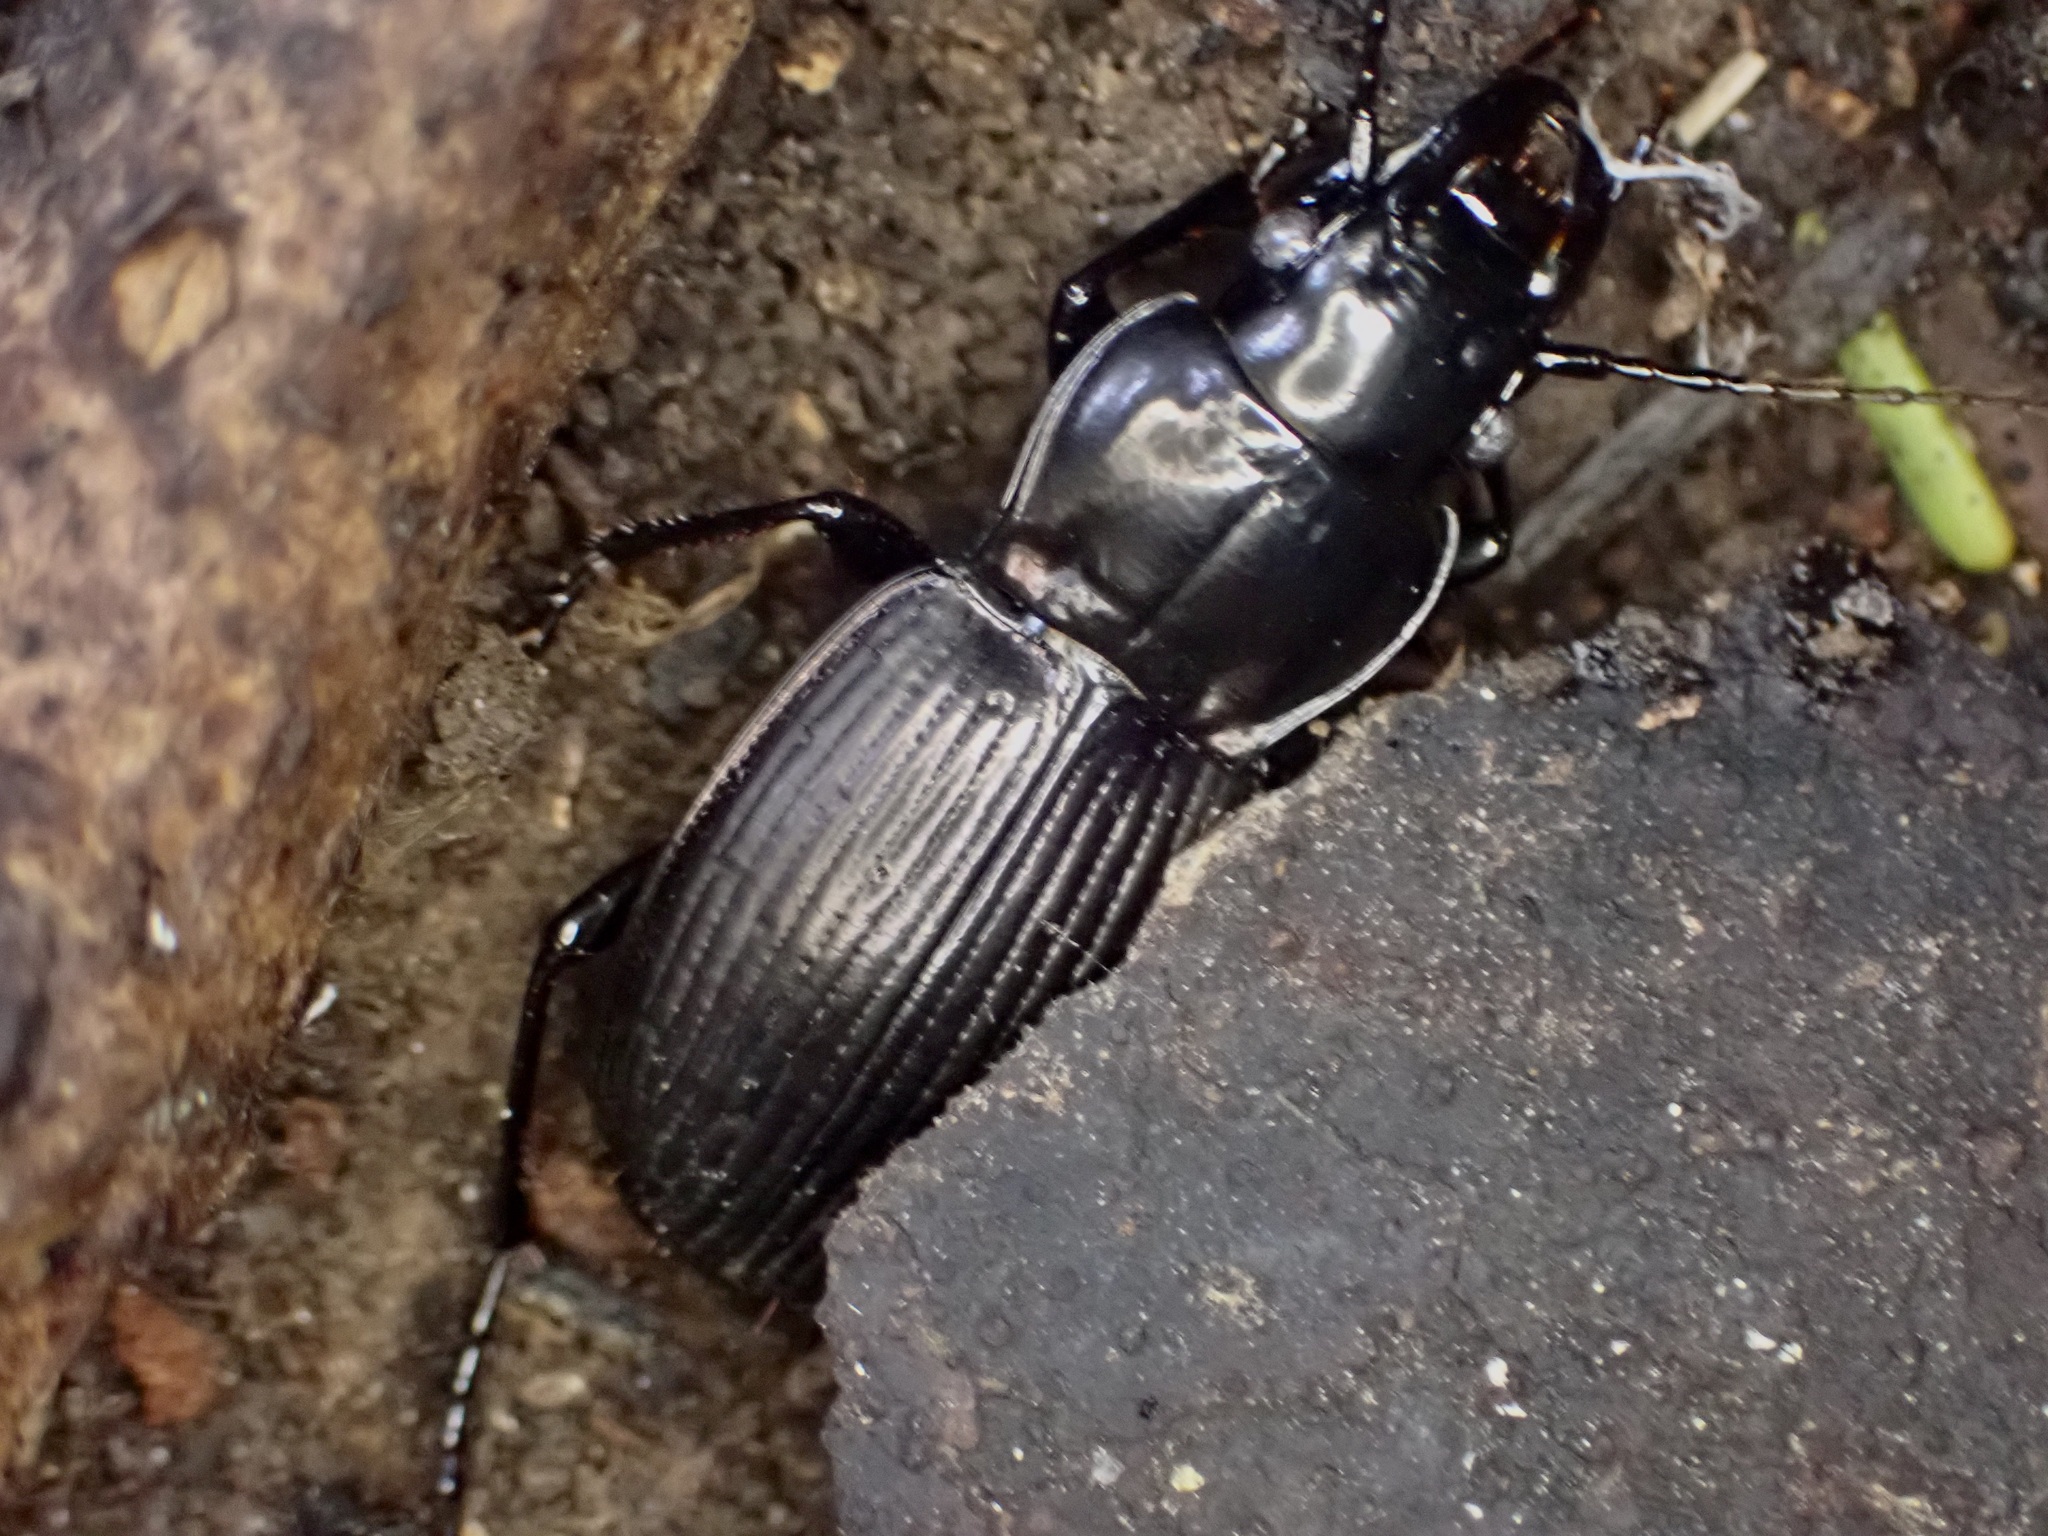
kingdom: Animalia
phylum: Arthropoda
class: Insecta
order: Coleoptera
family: Carabidae
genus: Megadromus
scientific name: Megadromus guerinii
